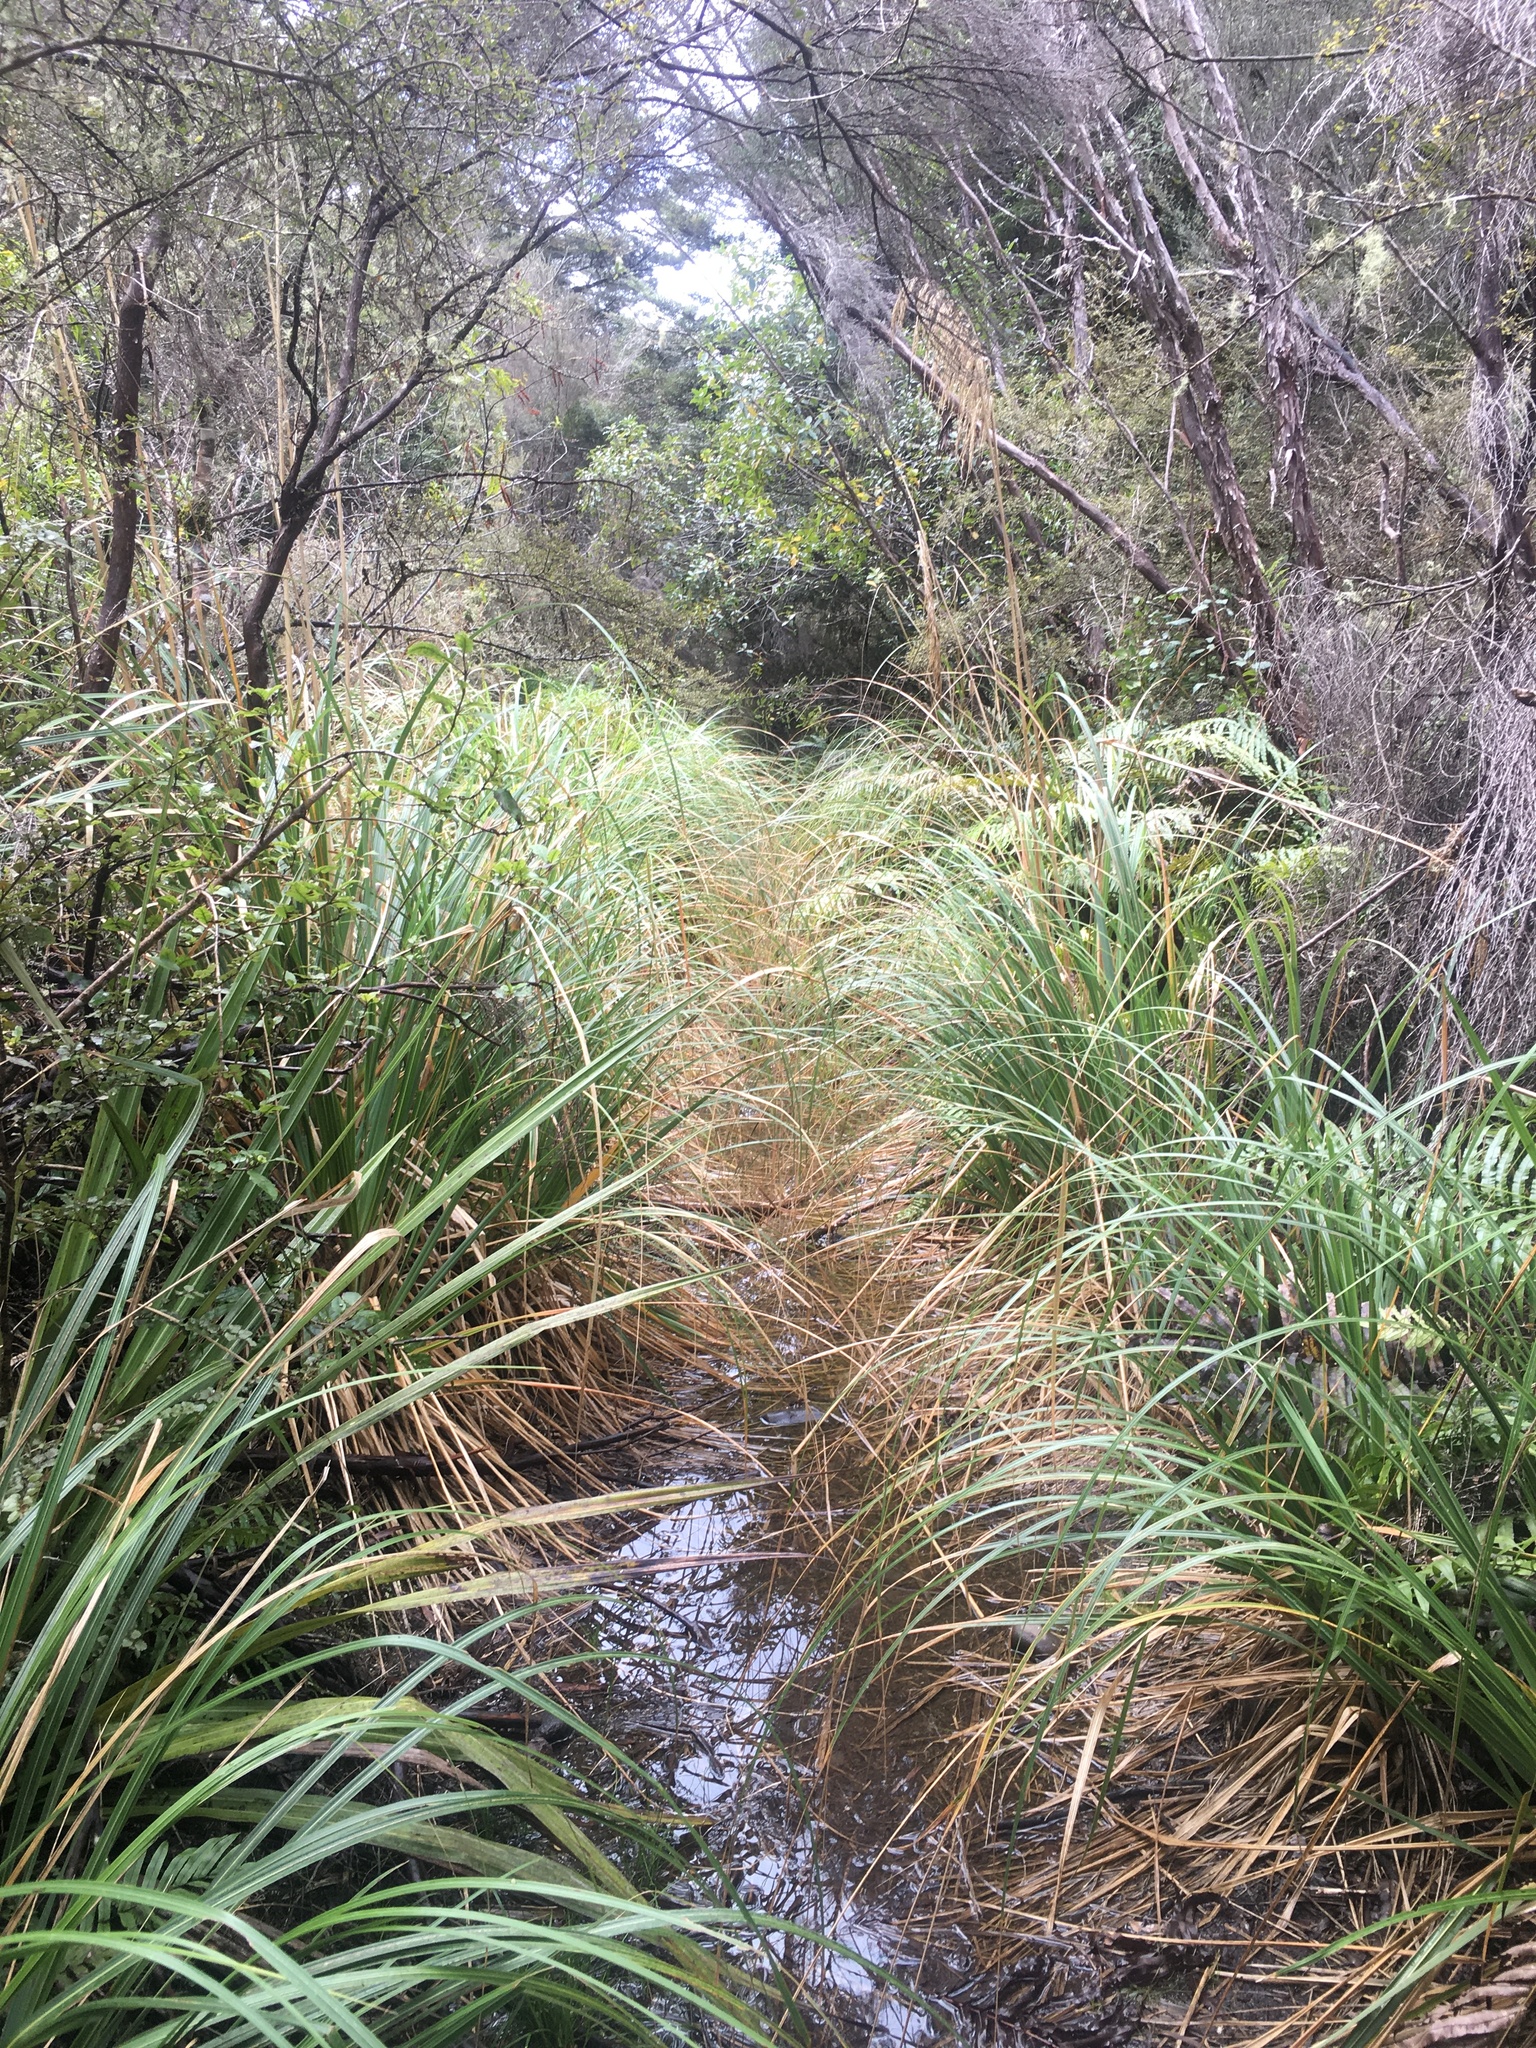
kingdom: Plantae
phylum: Tracheophyta
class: Liliopsida
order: Poales
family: Poaceae
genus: Austroderia
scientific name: Austroderia fulvida
